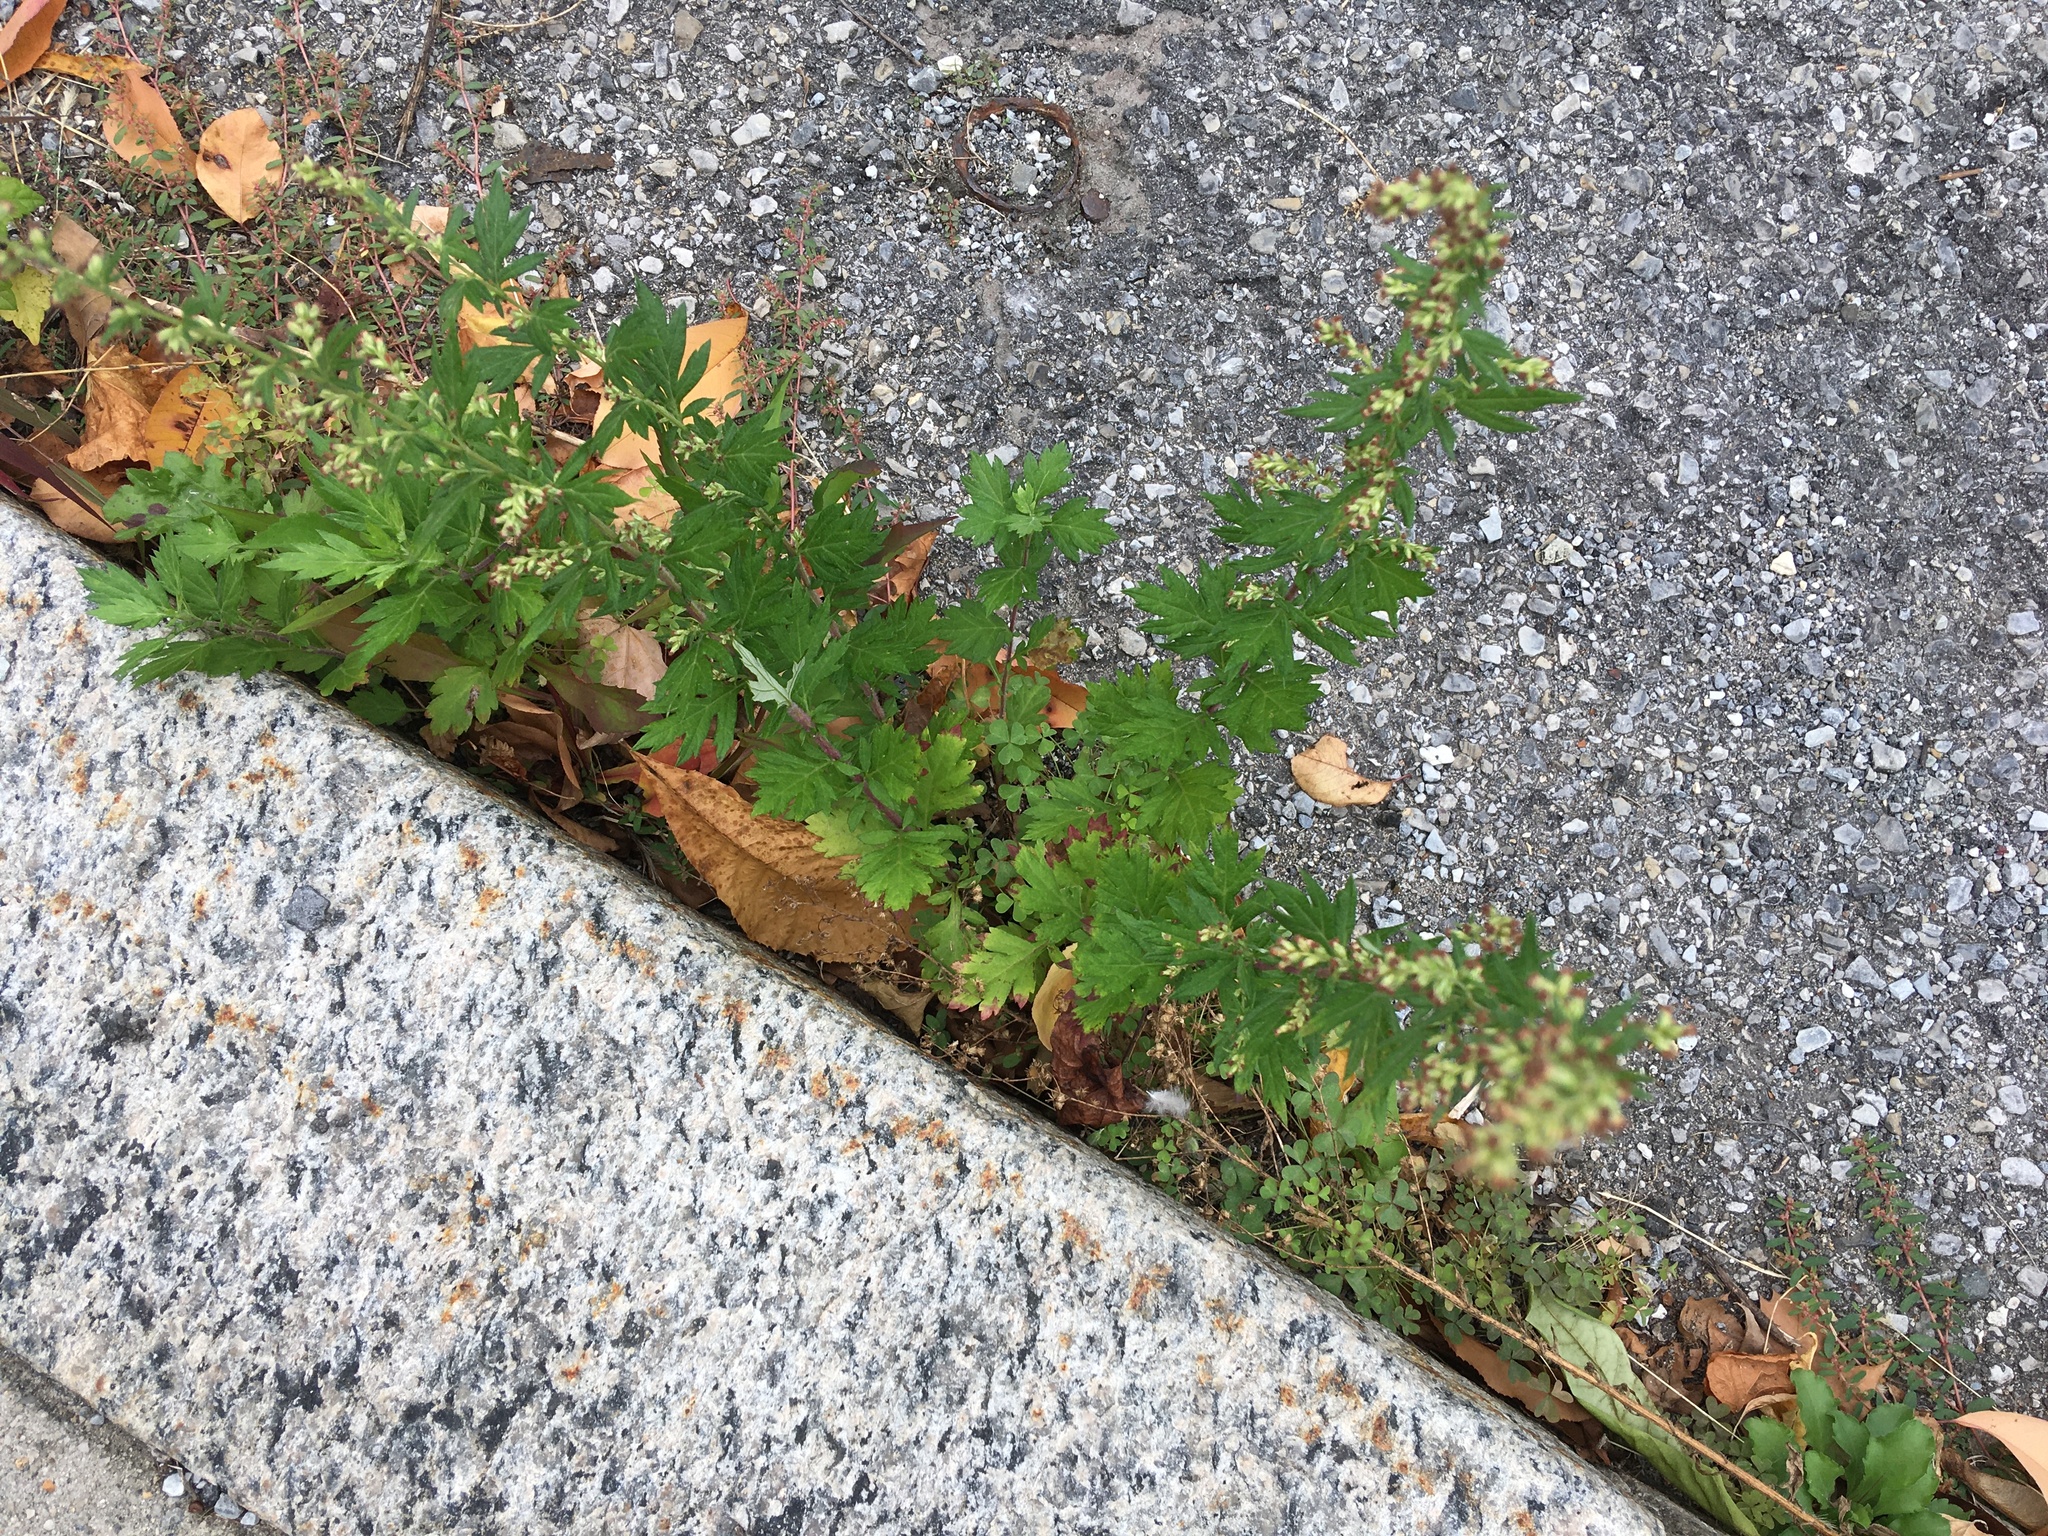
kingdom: Plantae
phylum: Tracheophyta
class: Magnoliopsida
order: Asterales
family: Asteraceae
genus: Artemisia
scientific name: Artemisia vulgaris
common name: Mugwort
